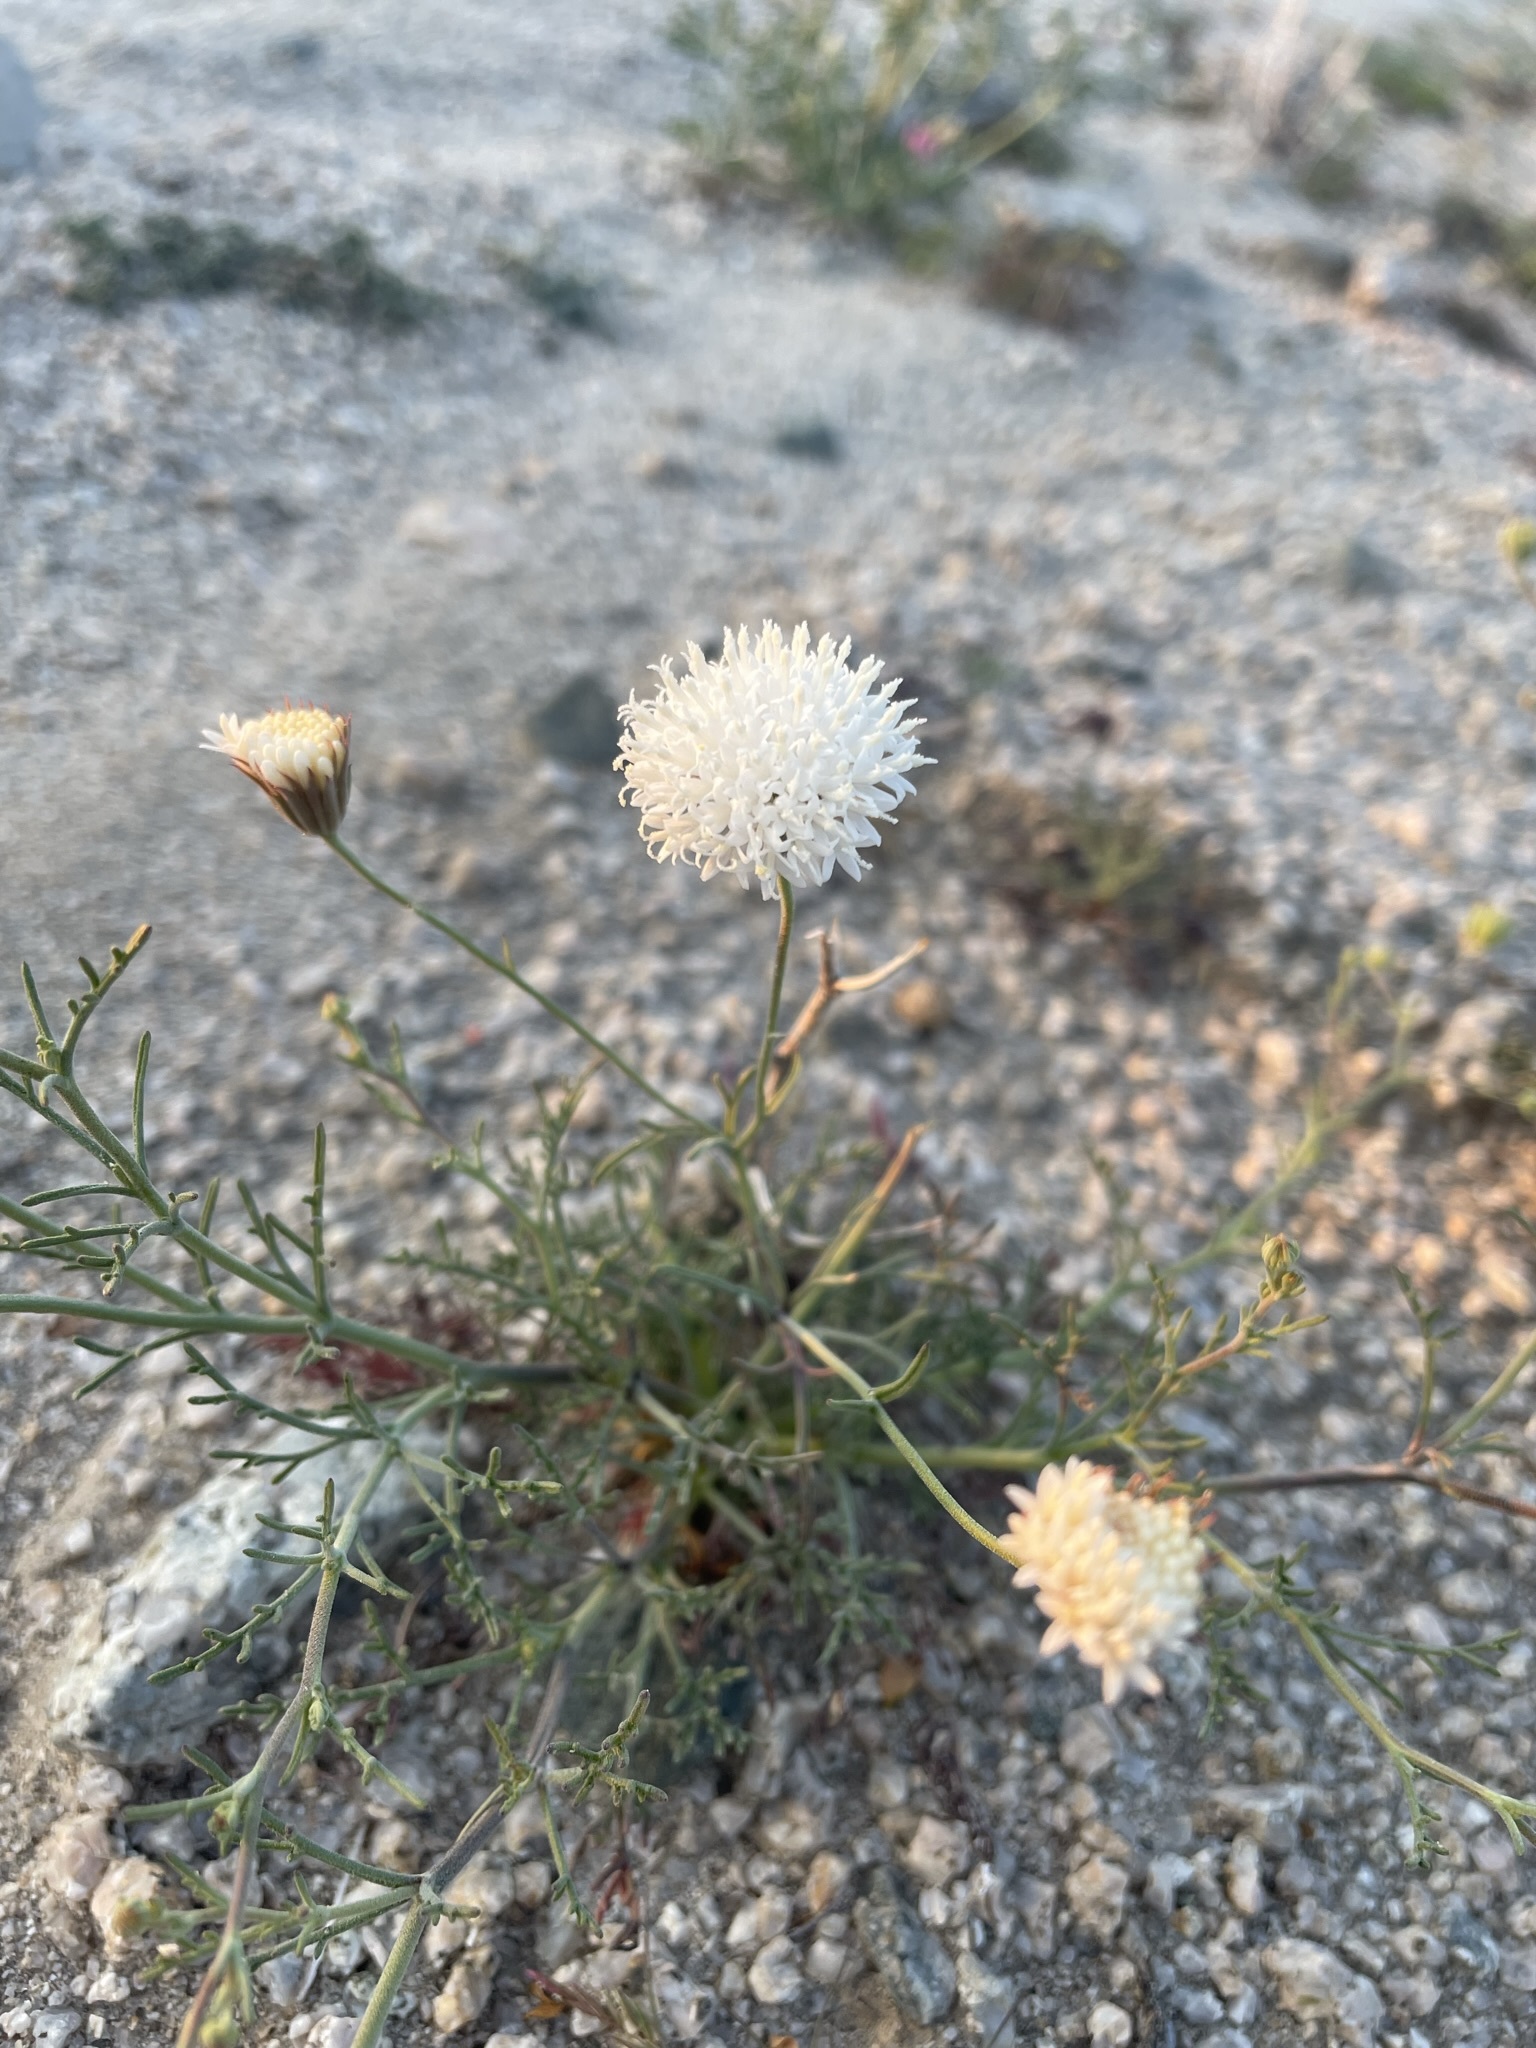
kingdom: Plantae
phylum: Tracheophyta
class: Magnoliopsida
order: Asterales
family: Asteraceae
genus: Chaenactis
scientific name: Chaenactis carphoclinia
